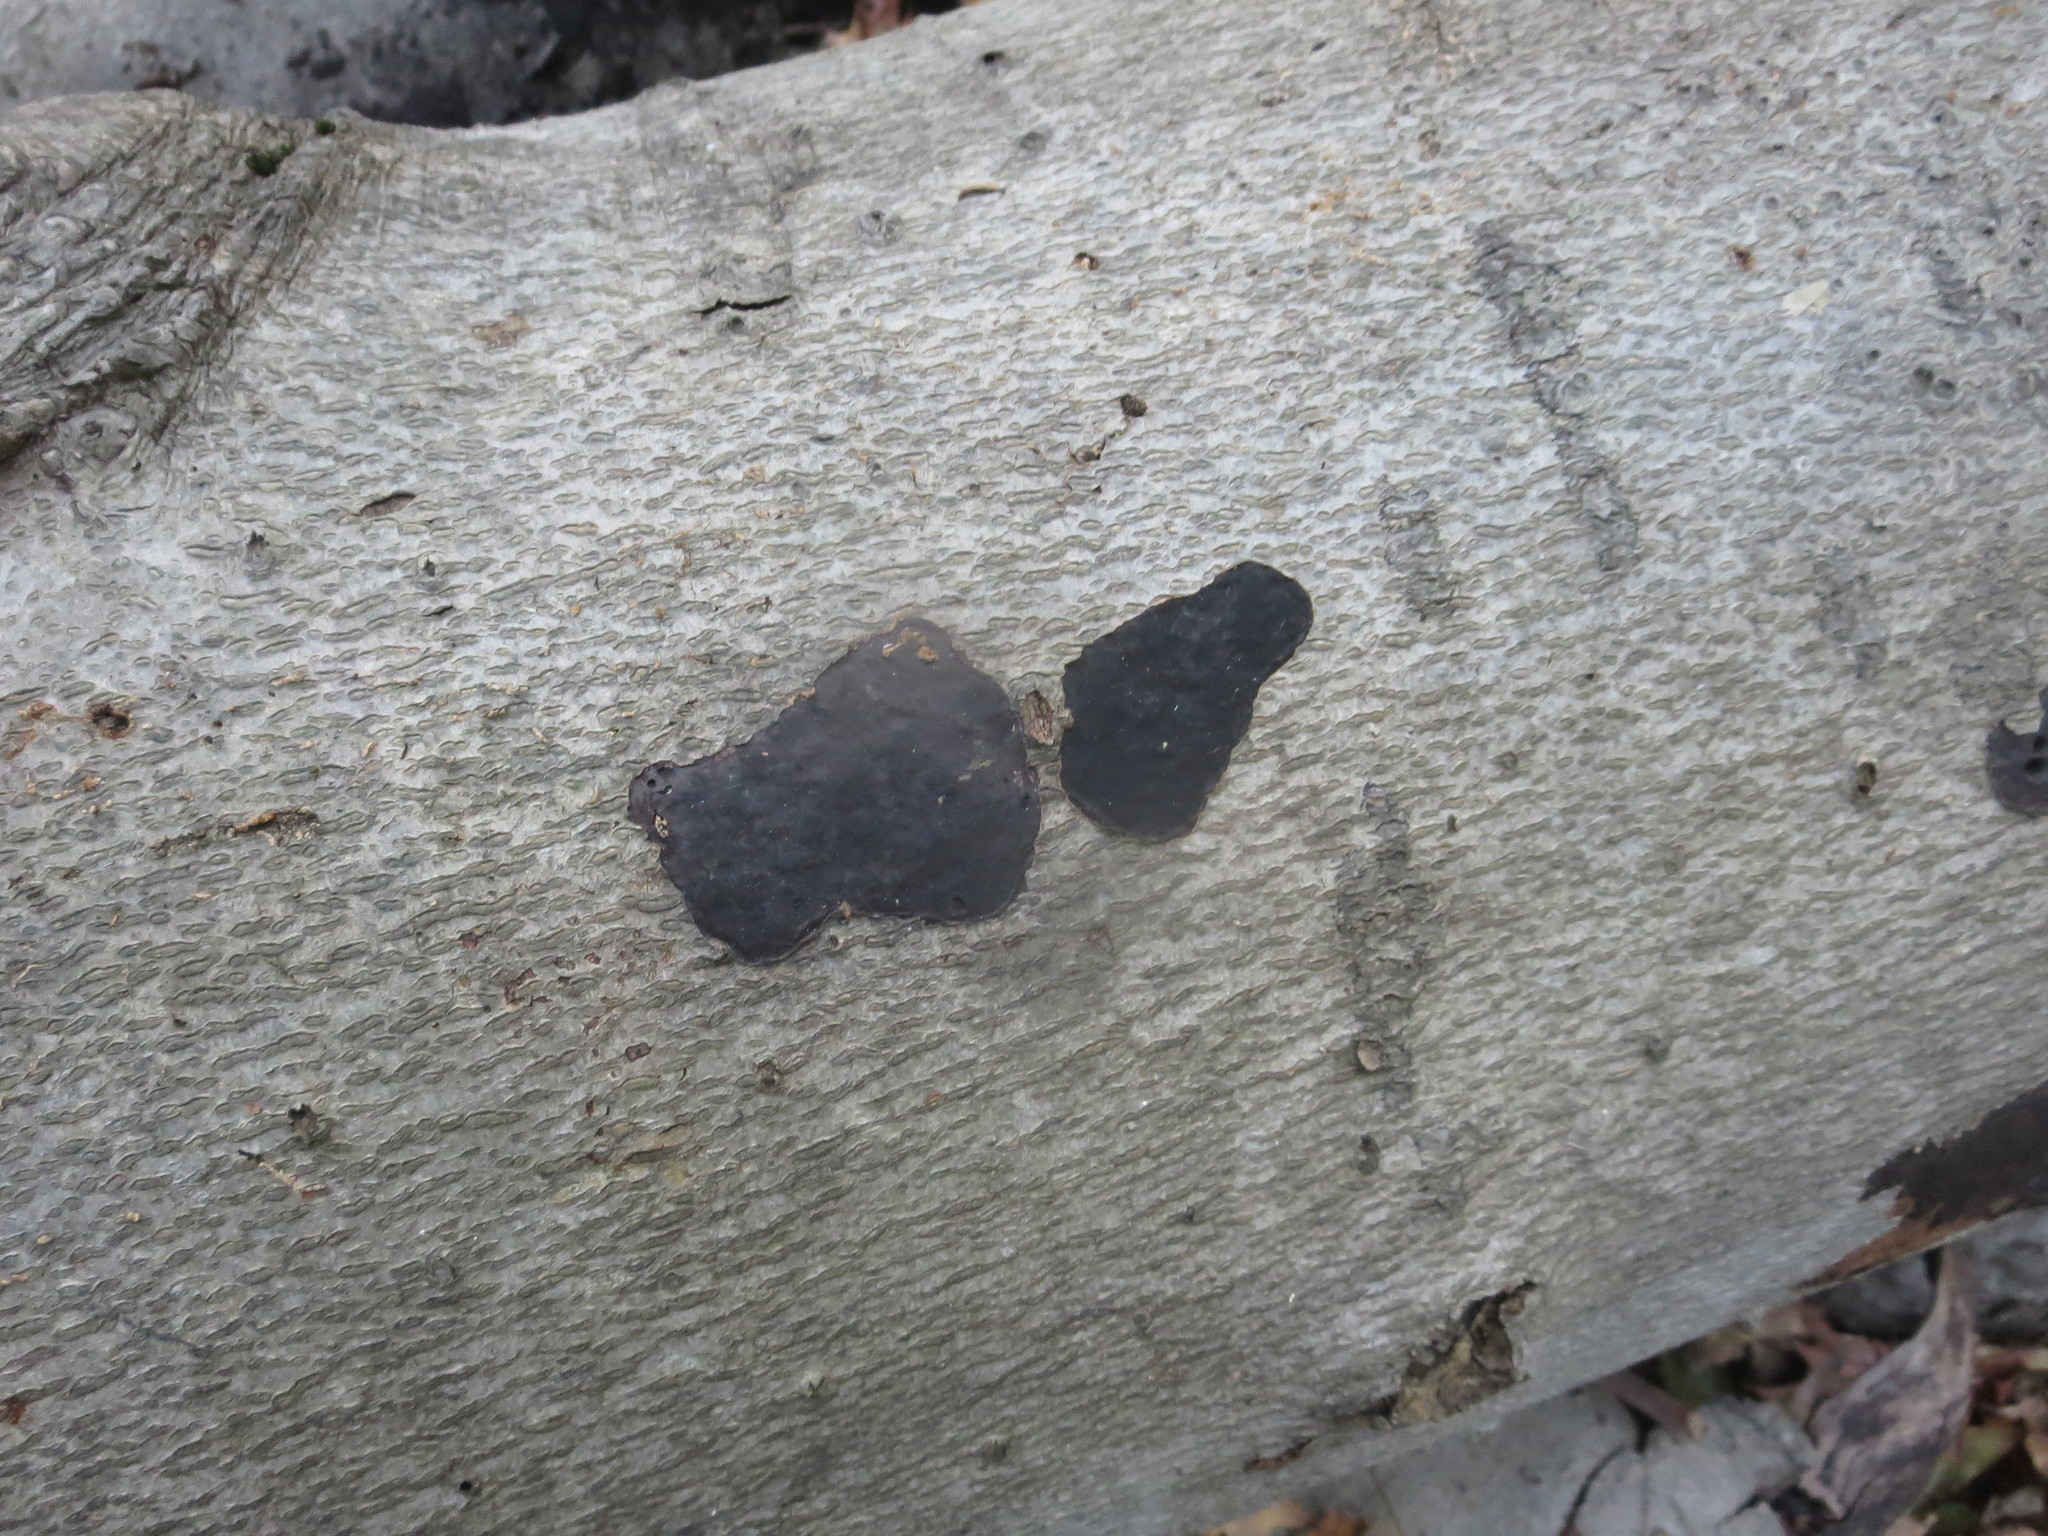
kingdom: Fungi
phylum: Ascomycota
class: Sordariomycetes
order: Xylariales
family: Graphostromataceae
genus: Biscogniauxia
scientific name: Biscogniauxia nummularia
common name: Beech tarcrust
